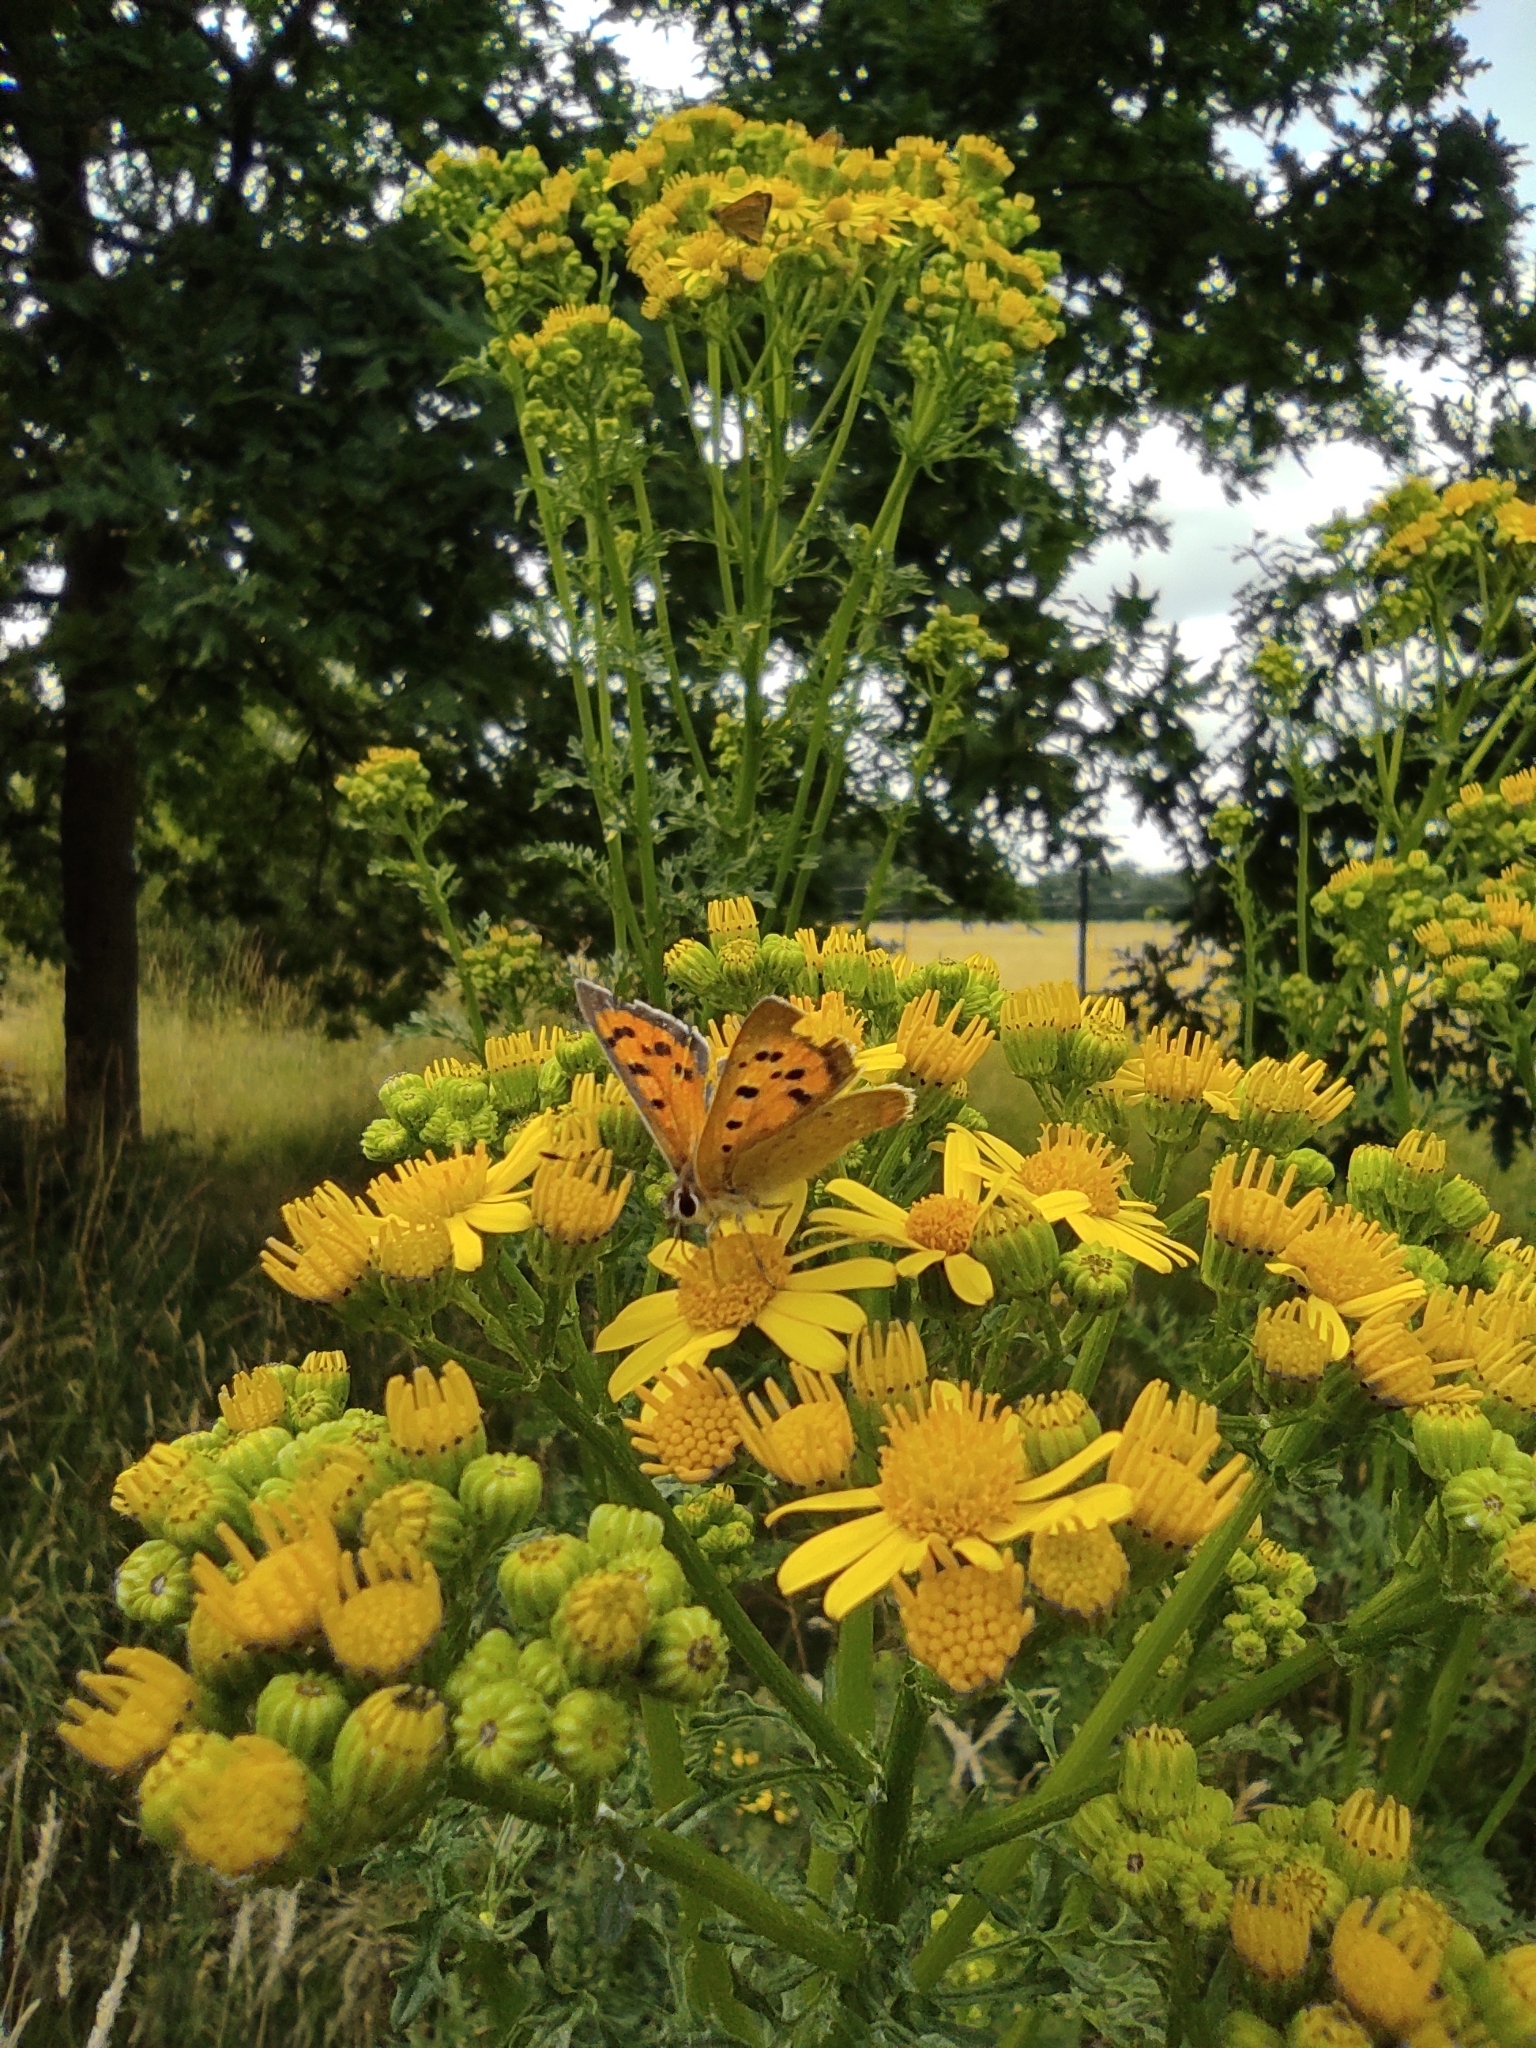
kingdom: Animalia
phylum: Arthropoda
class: Insecta
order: Lepidoptera
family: Lycaenidae
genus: Lycaena
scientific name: Lycaena phlaeas
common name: Small copper
